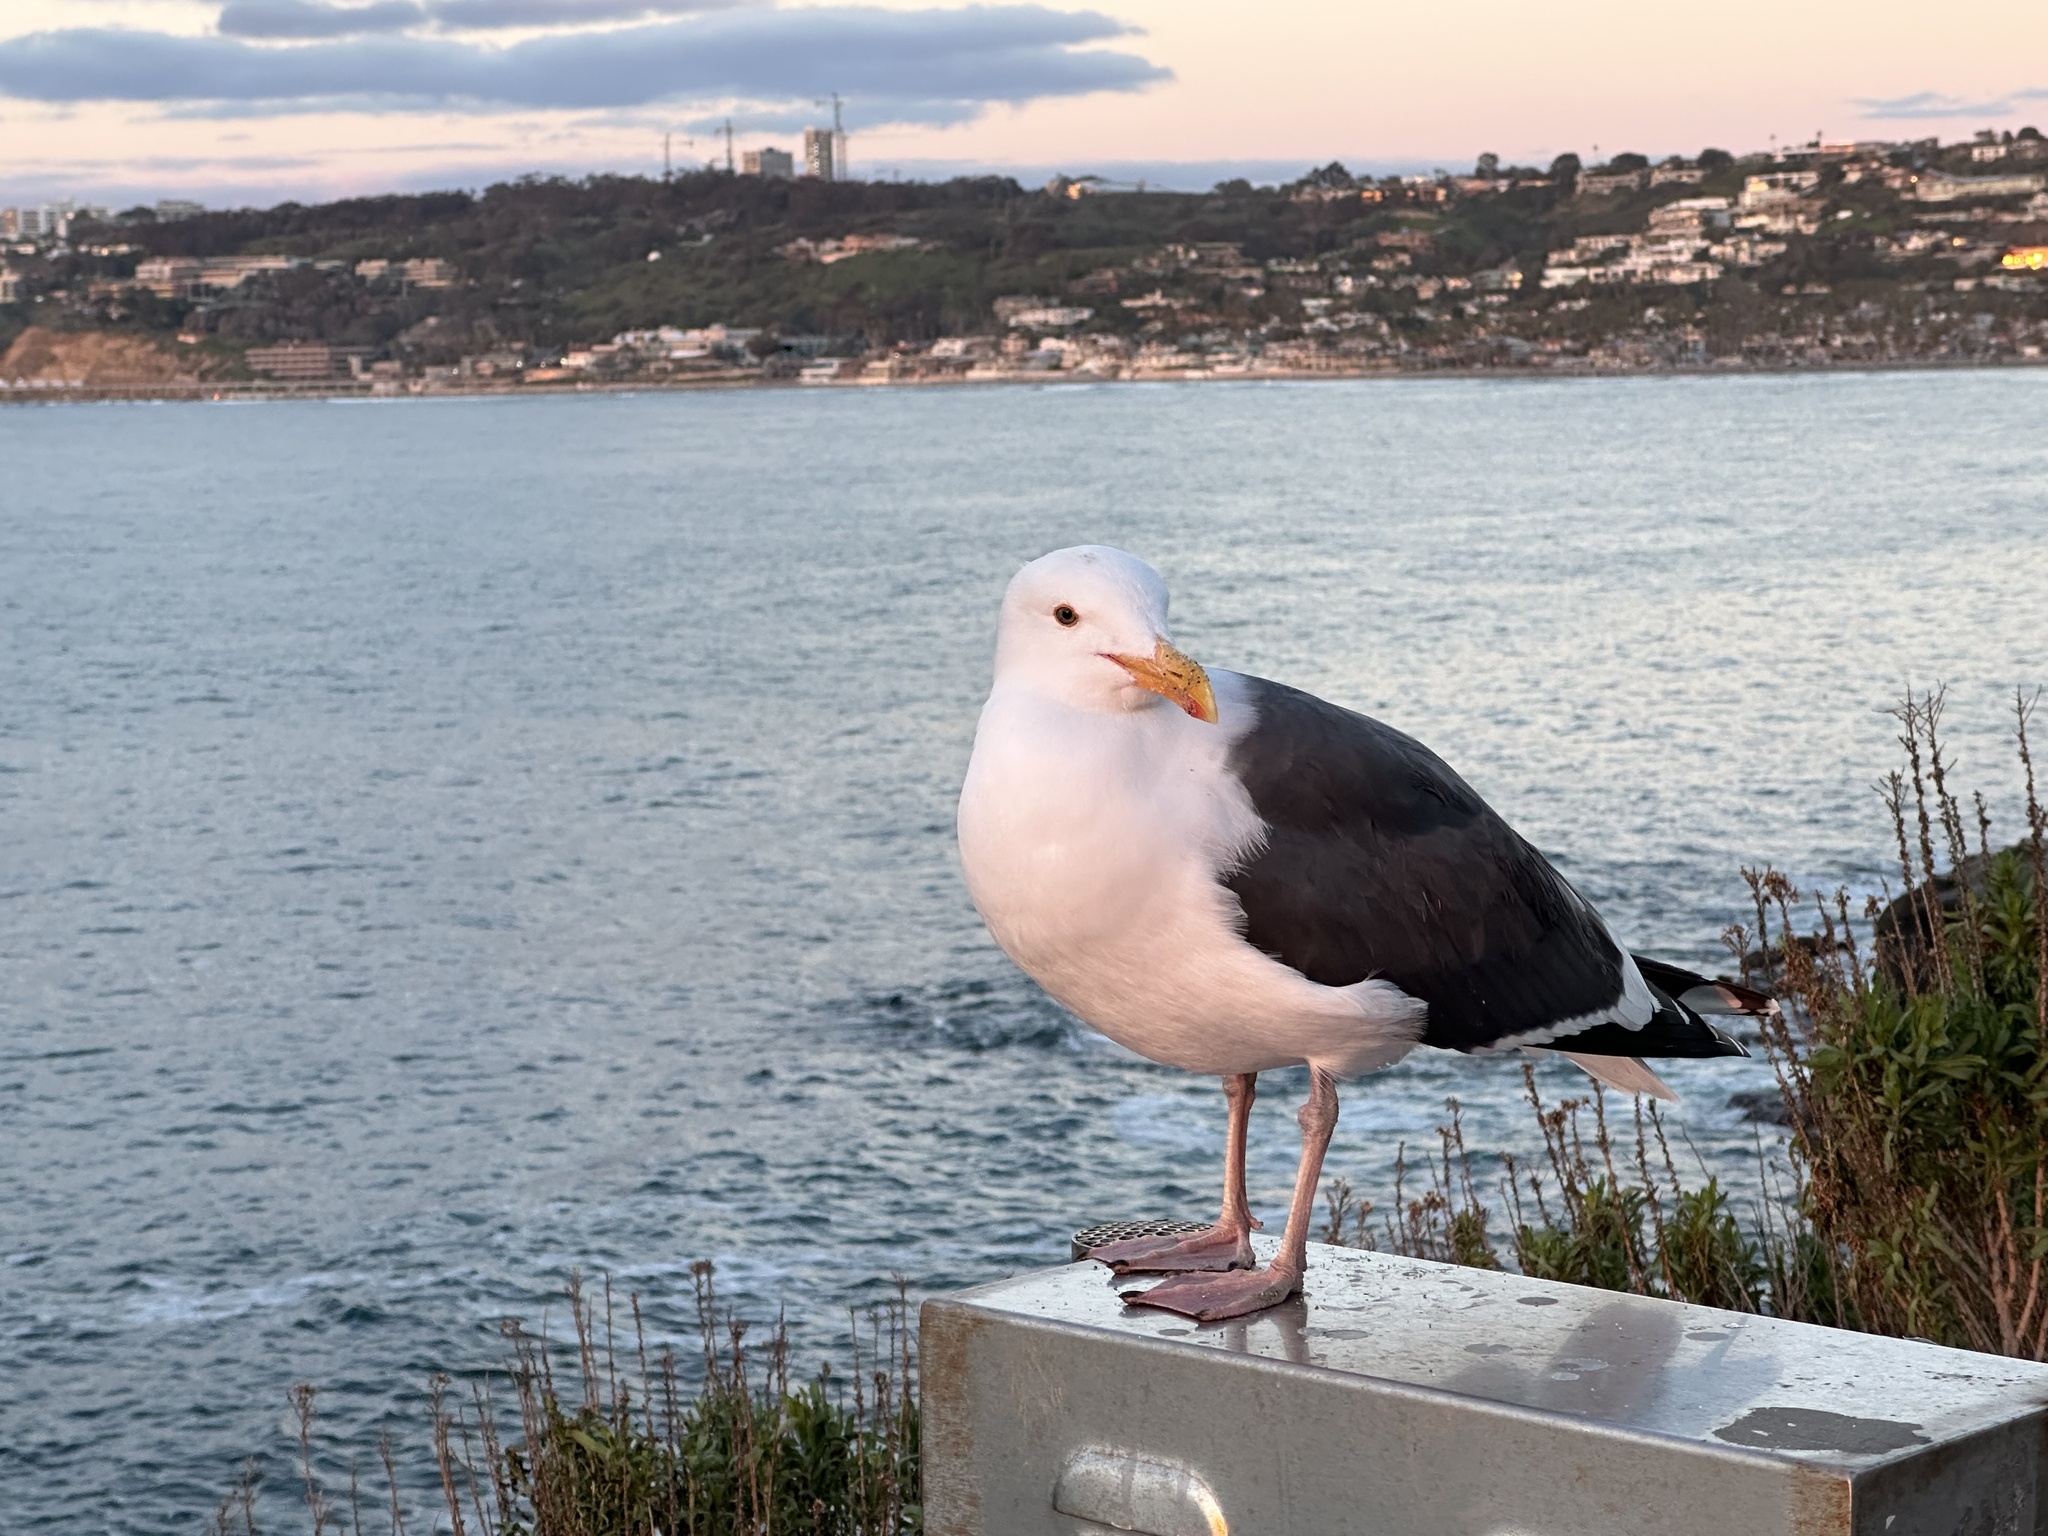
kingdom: Animalia
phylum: Chordata
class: Aves
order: Charadriiformes
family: Laridae
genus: Larus
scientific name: Larus occidentalis
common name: Western gull
